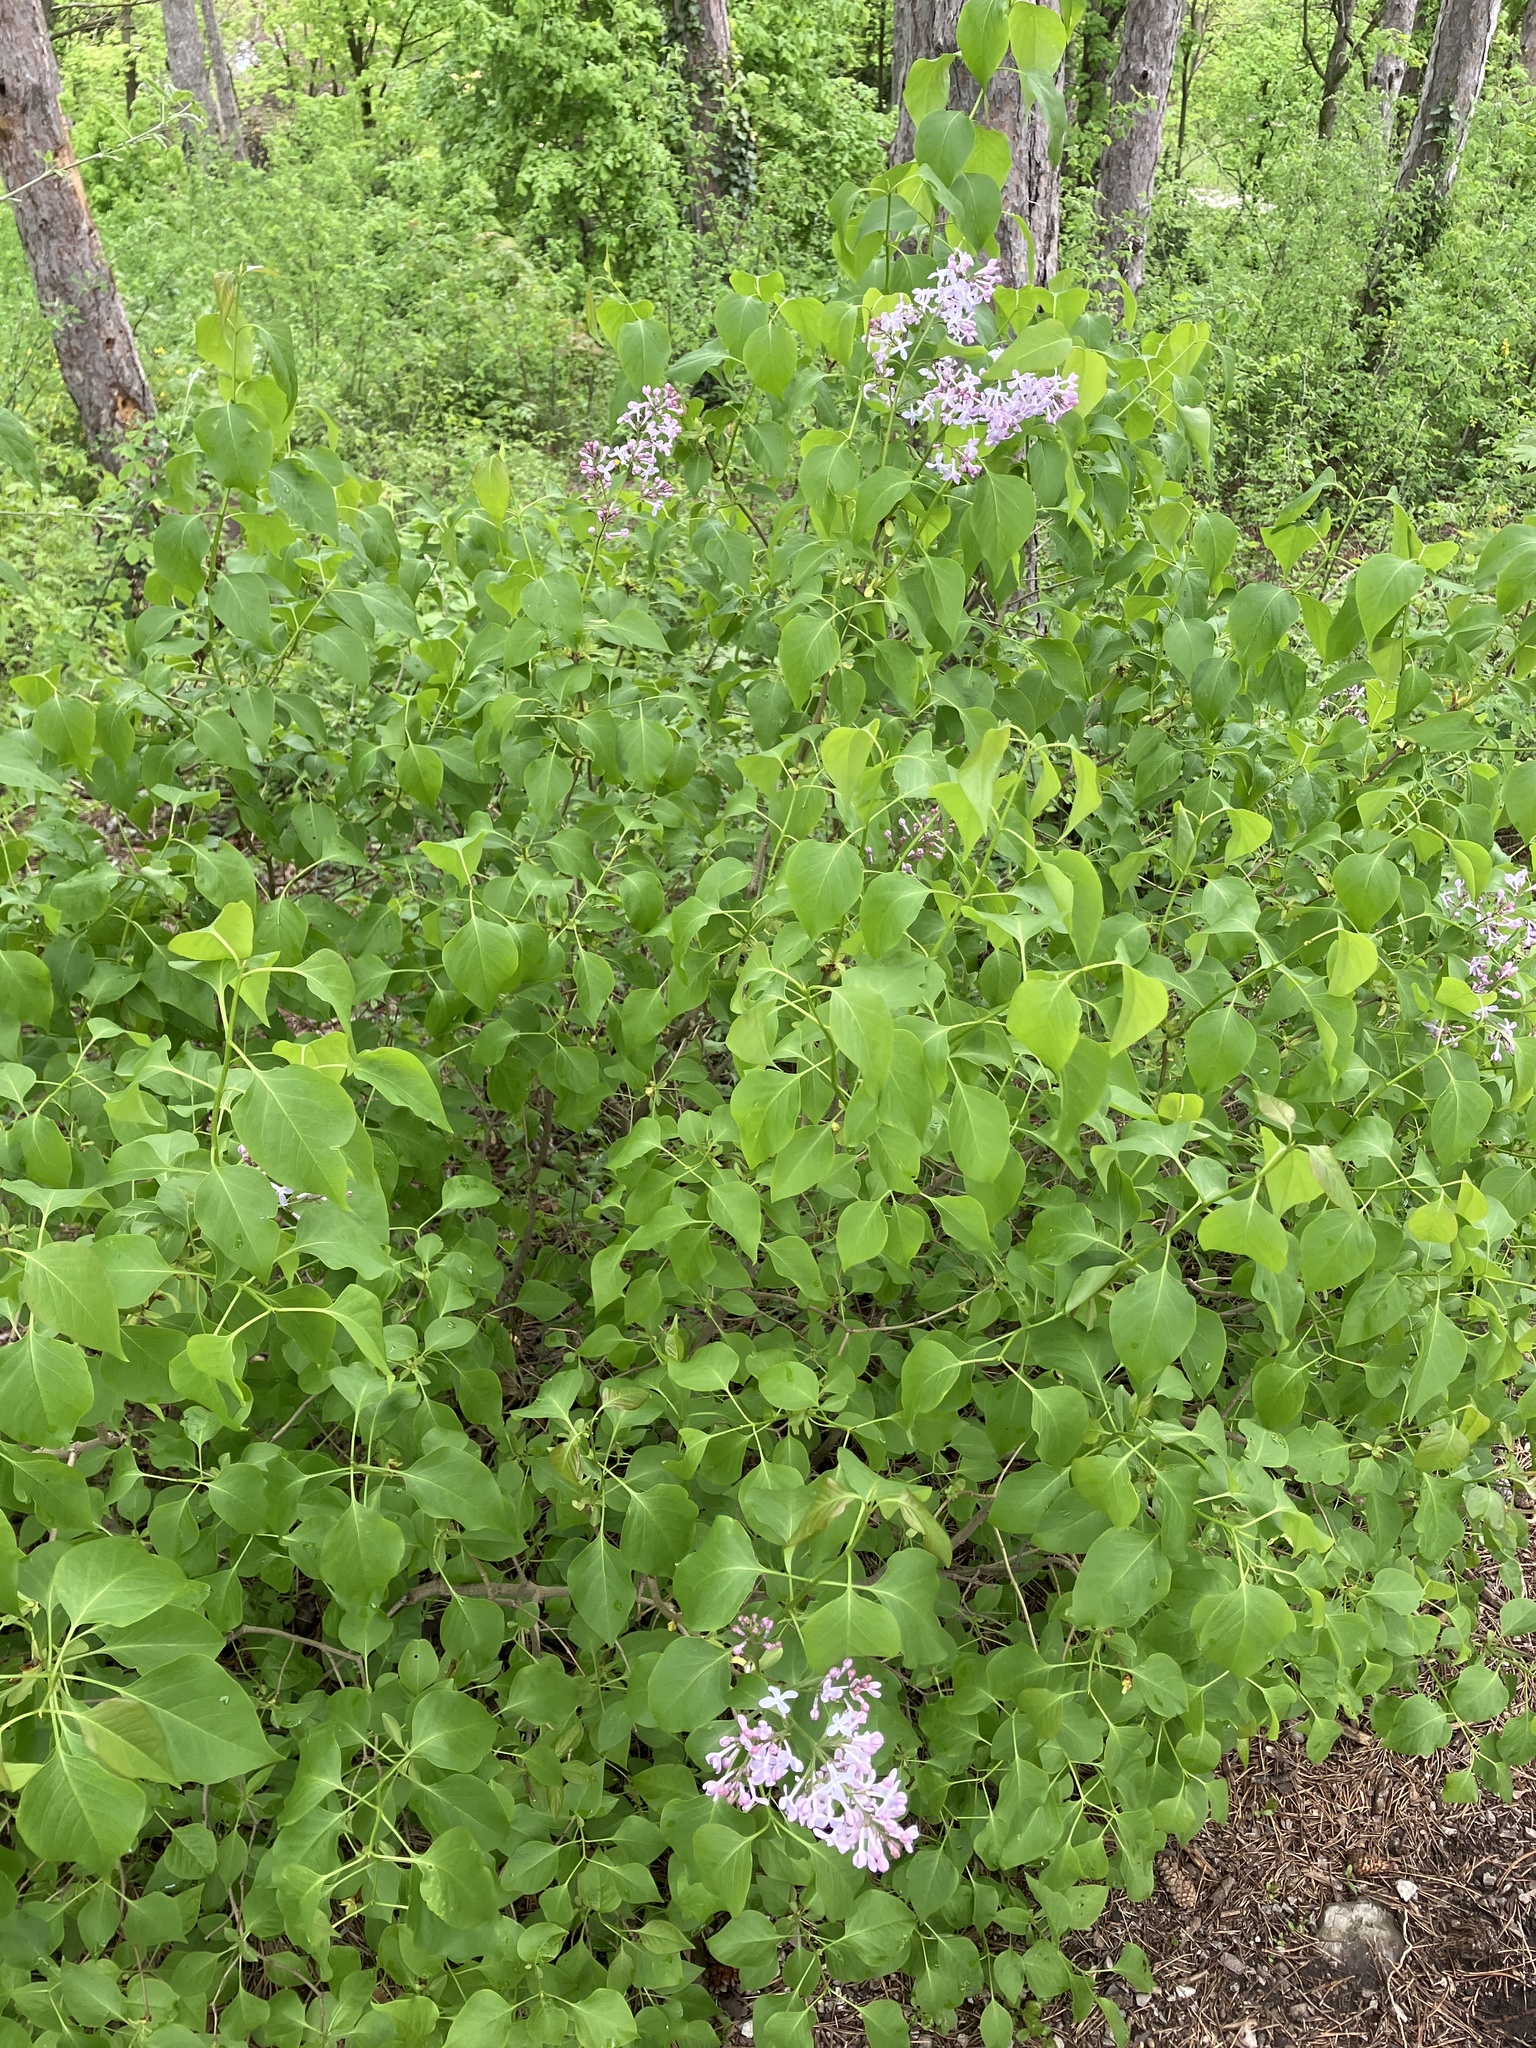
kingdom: Plantae
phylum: Tracheophyta
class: Magnoliopsida
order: Lamiales
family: Oleaceae
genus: Syringa
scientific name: Syringa vulgaris
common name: Common lilac
